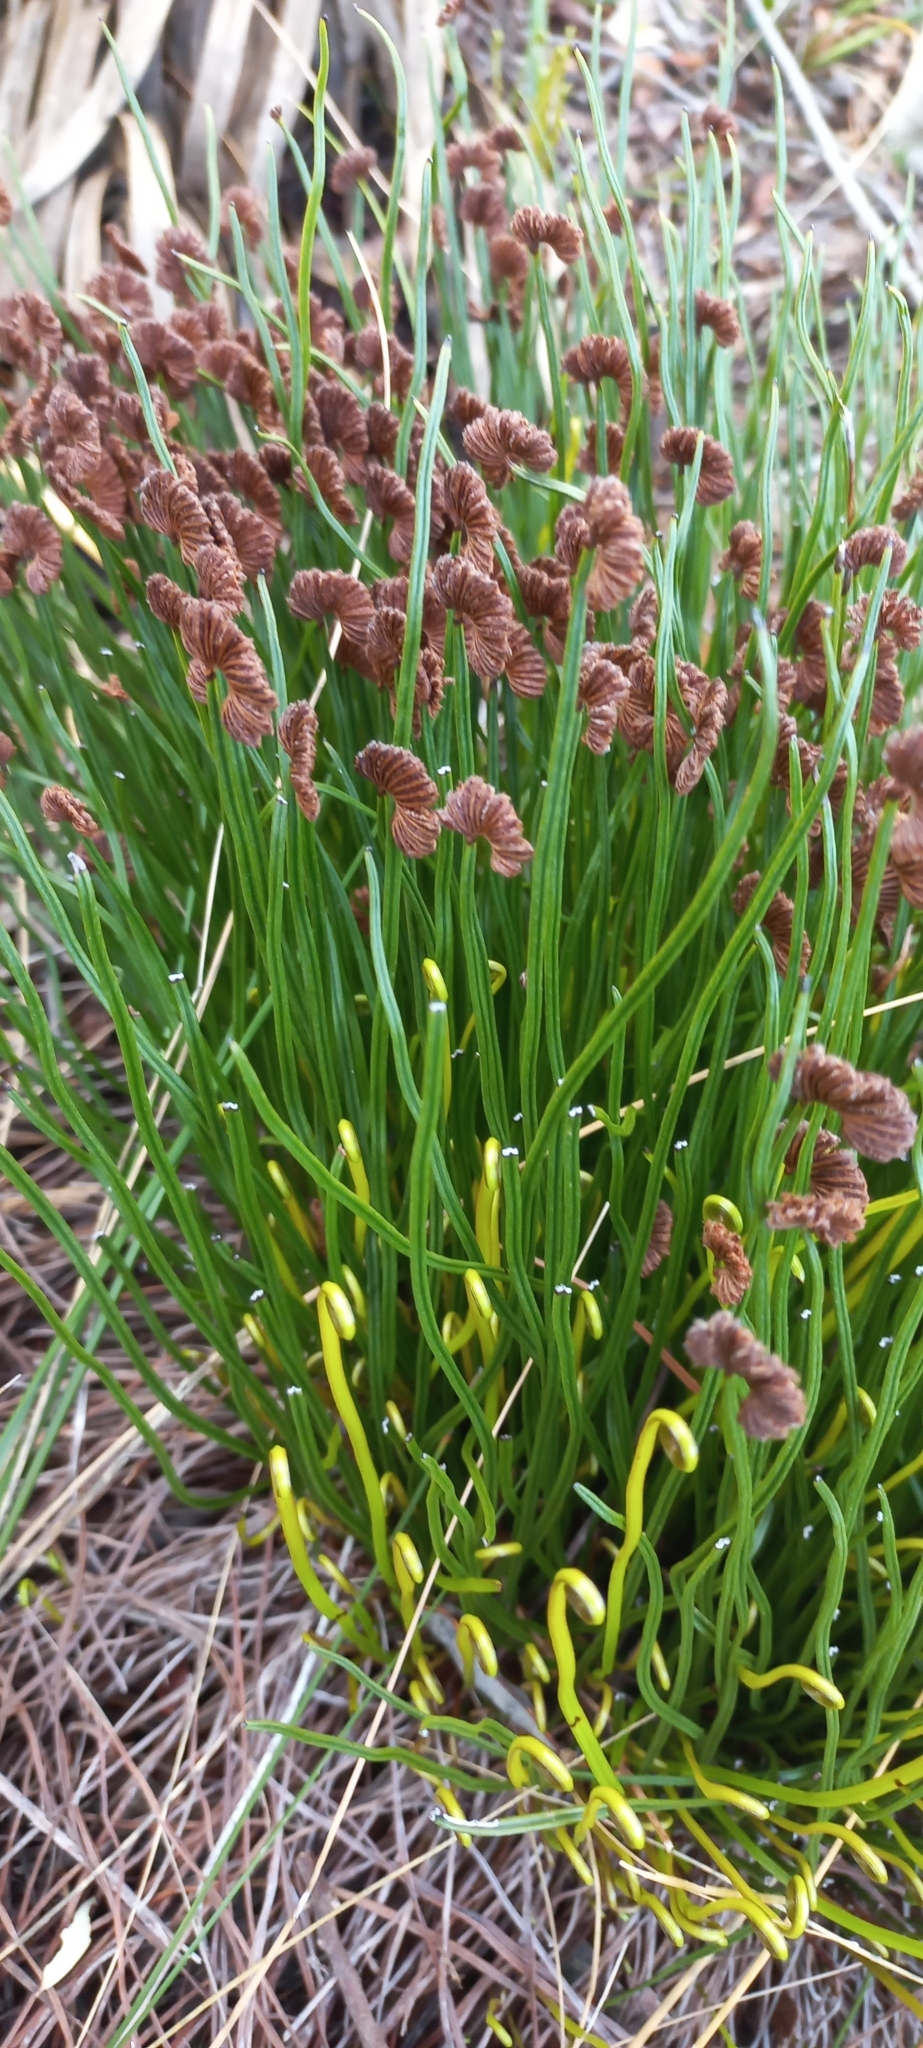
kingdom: Plantae
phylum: Tracheophyta
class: Polypodiopsida
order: Schizaeales
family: Schizaeaceae
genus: Schizaea
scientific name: Schizaea pectinata
